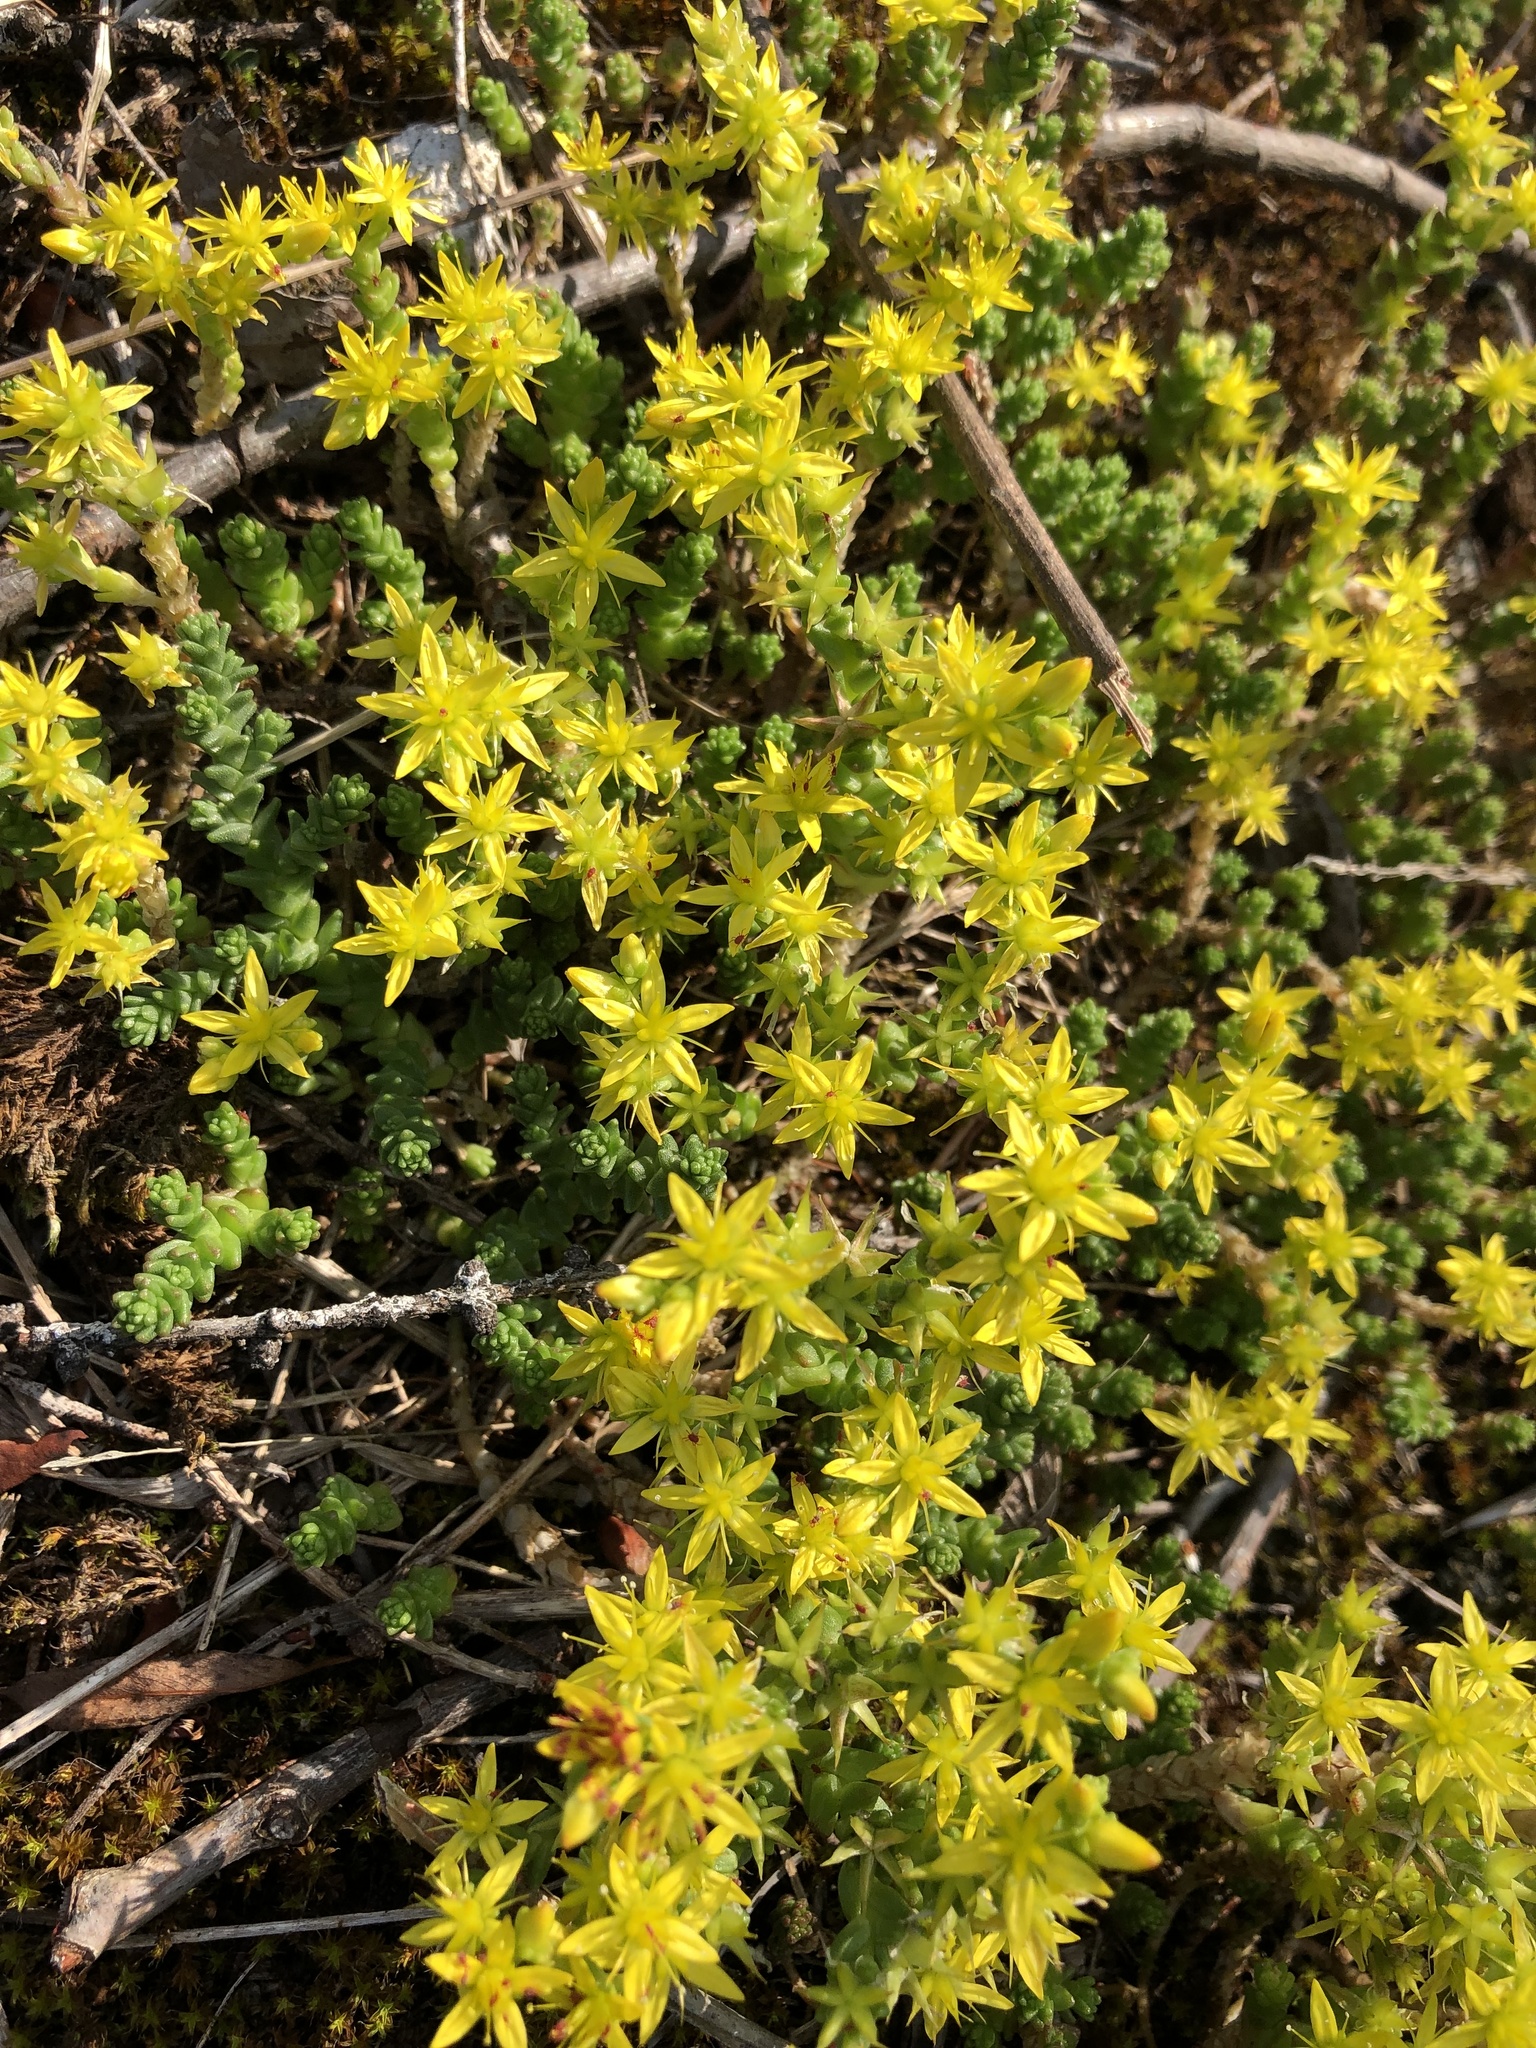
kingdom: Plantae
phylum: Tracheophyta
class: Magnoliopsida
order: Saxifragales
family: Crassulaceae
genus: Sedum
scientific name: Sedum acre
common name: Biting stonecrop
